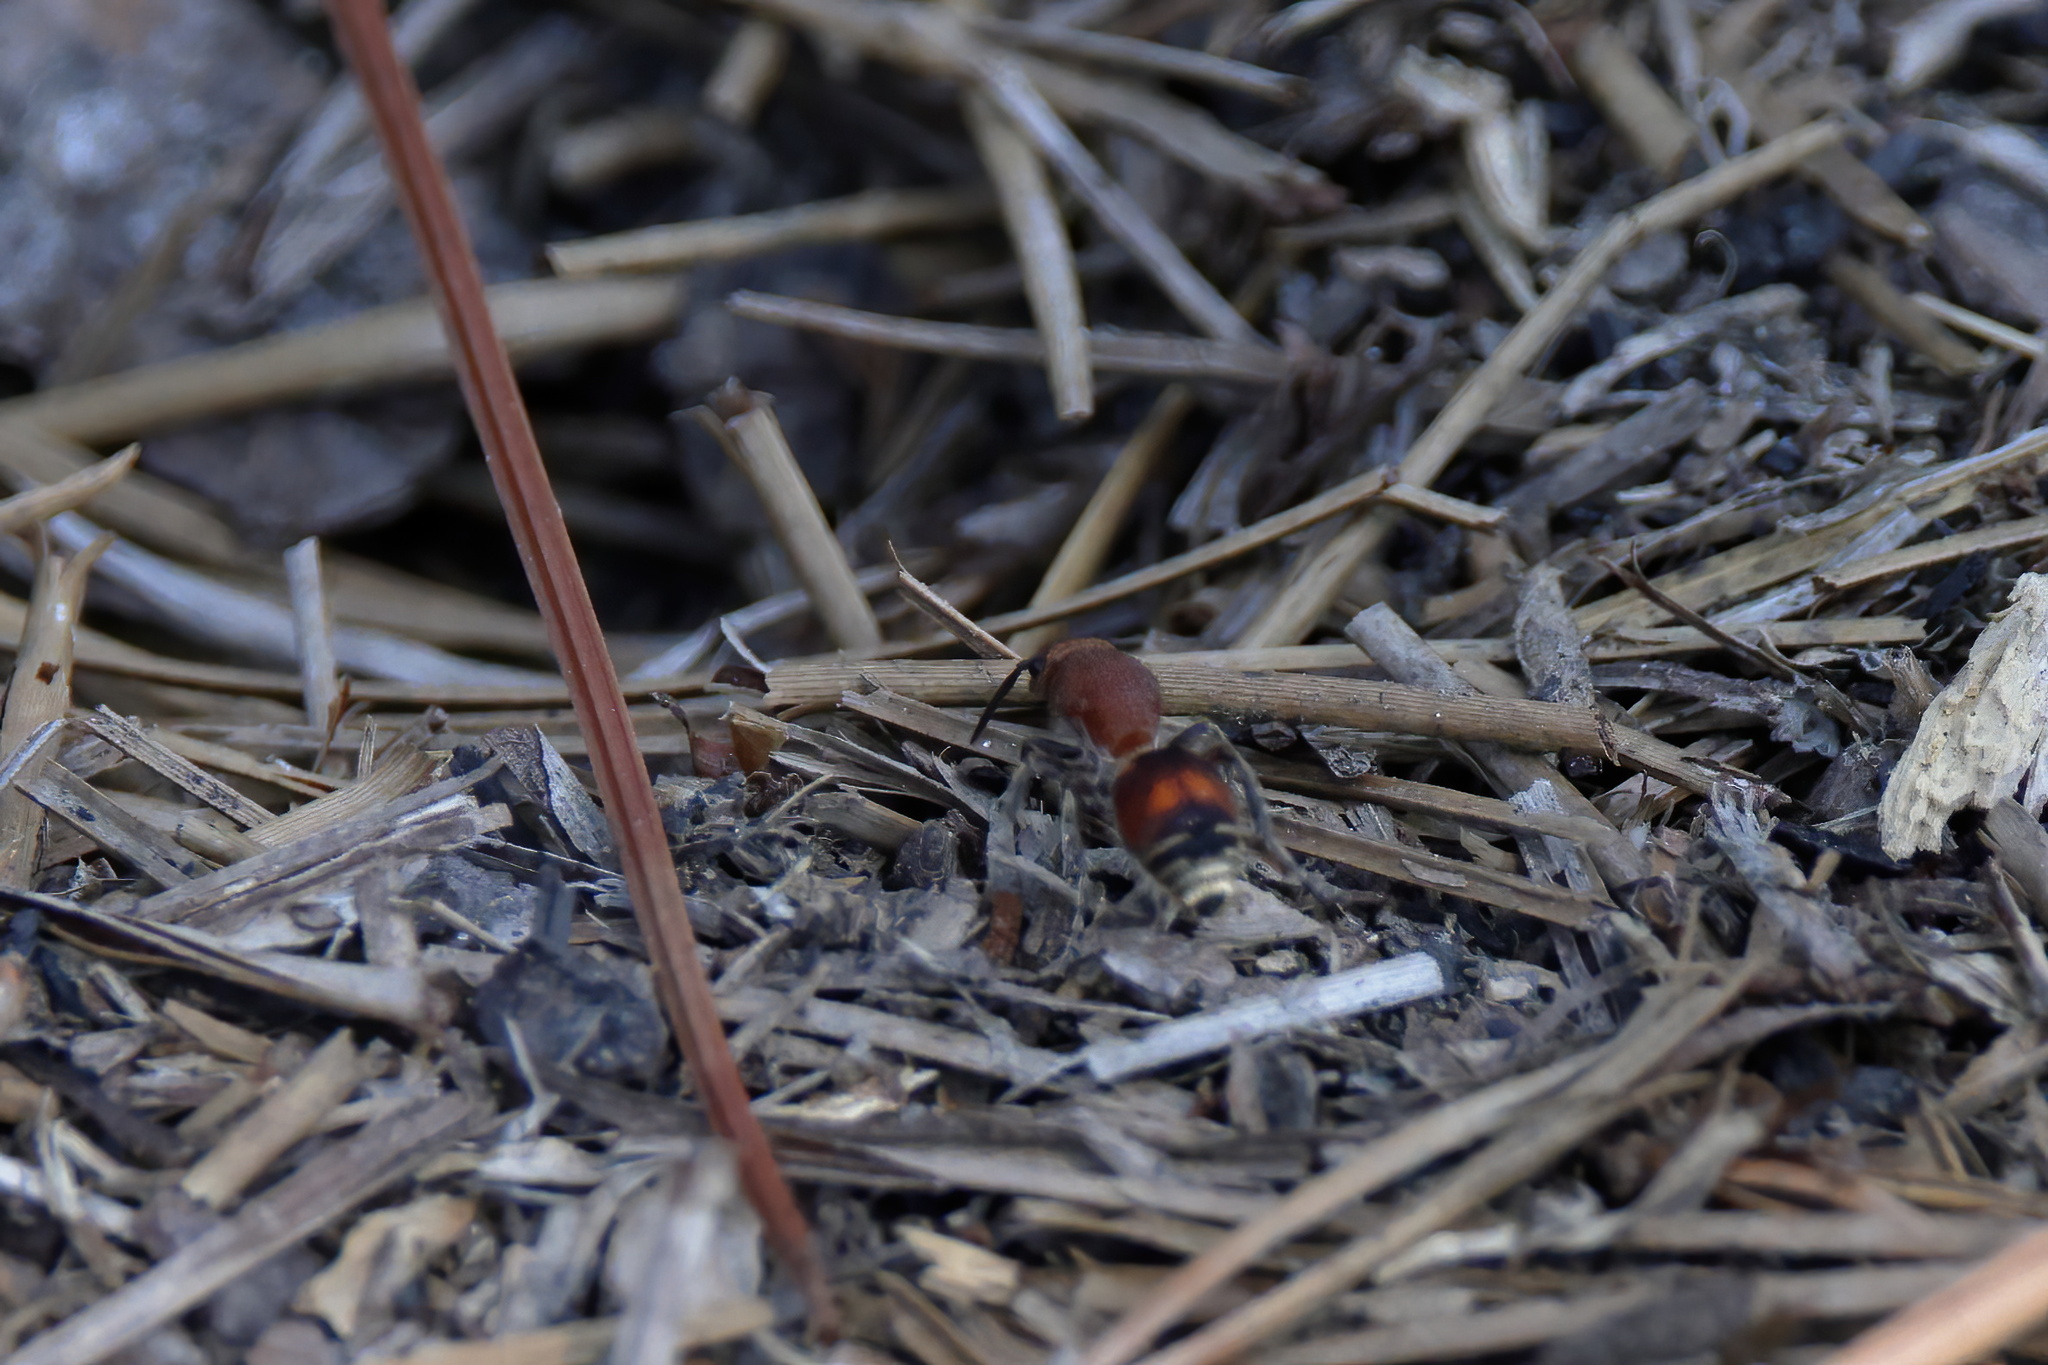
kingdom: Animalia
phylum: Arthropoda
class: Insecta
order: Hymenoptera
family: Mutillidae
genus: Dasymutilla
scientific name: Dasymutilla
